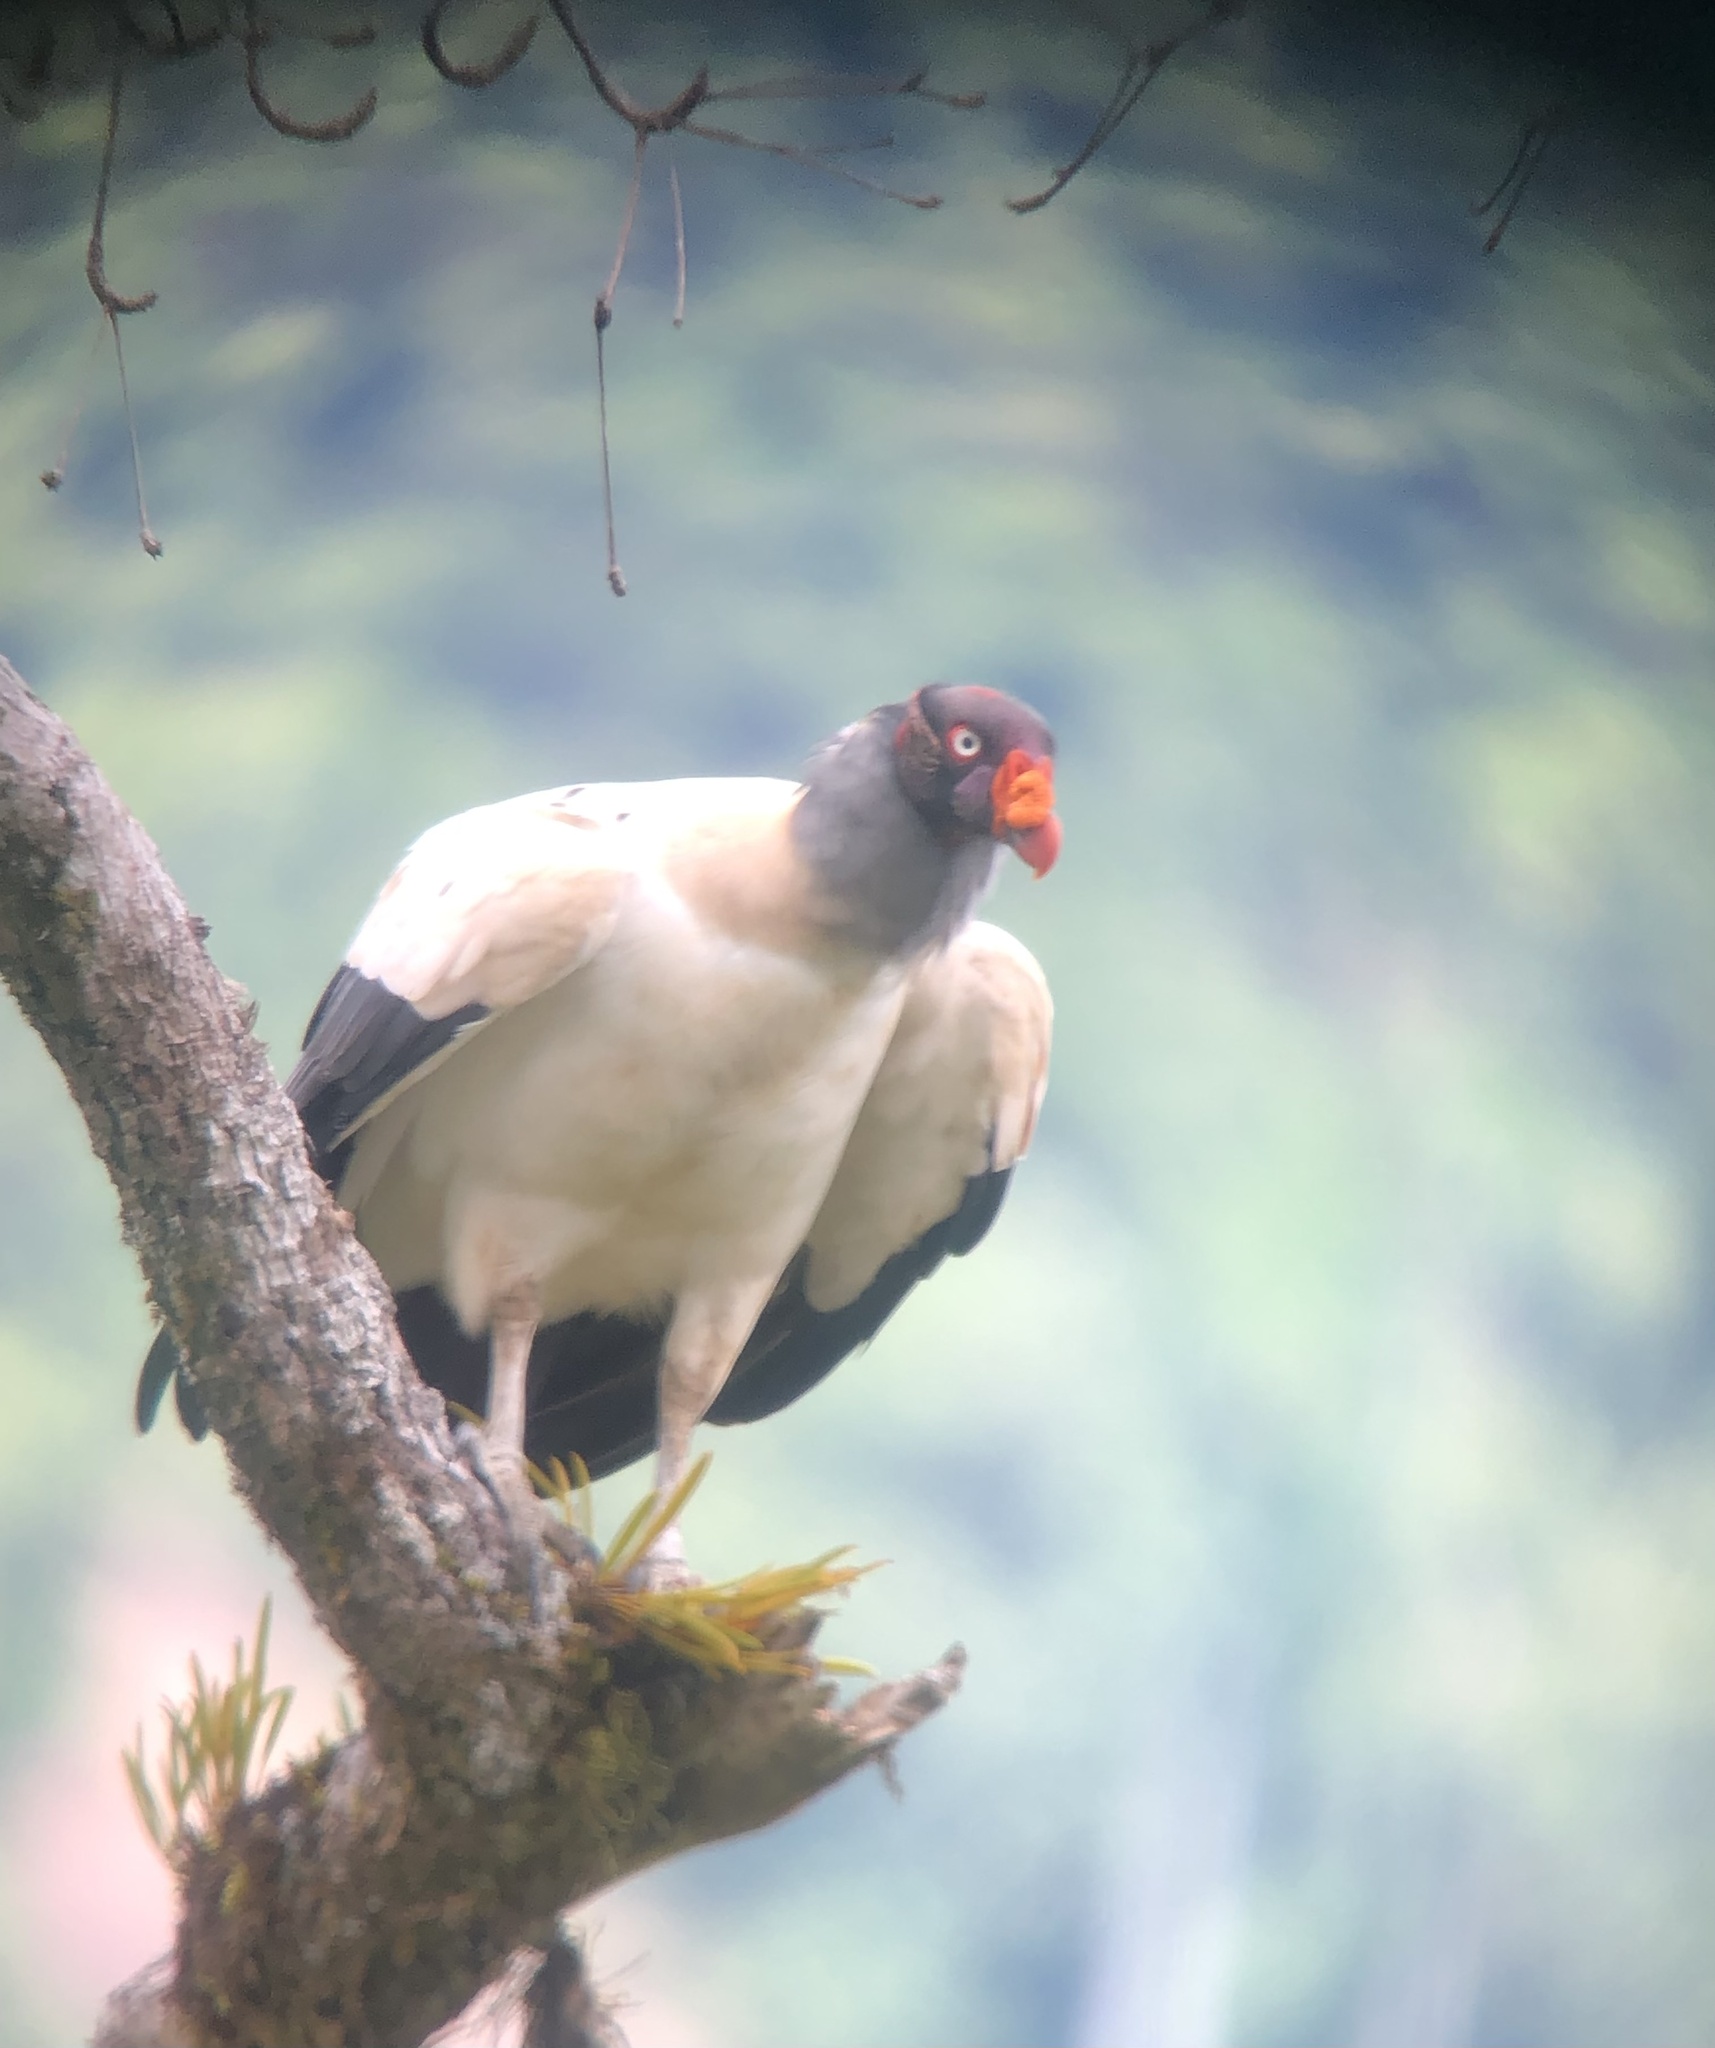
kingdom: Animalia
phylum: Chordata
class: Aves
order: Accipitriformes
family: Cathartidae
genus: Sarcoramphus
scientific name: Sarcoramphus papa
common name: King vulture
